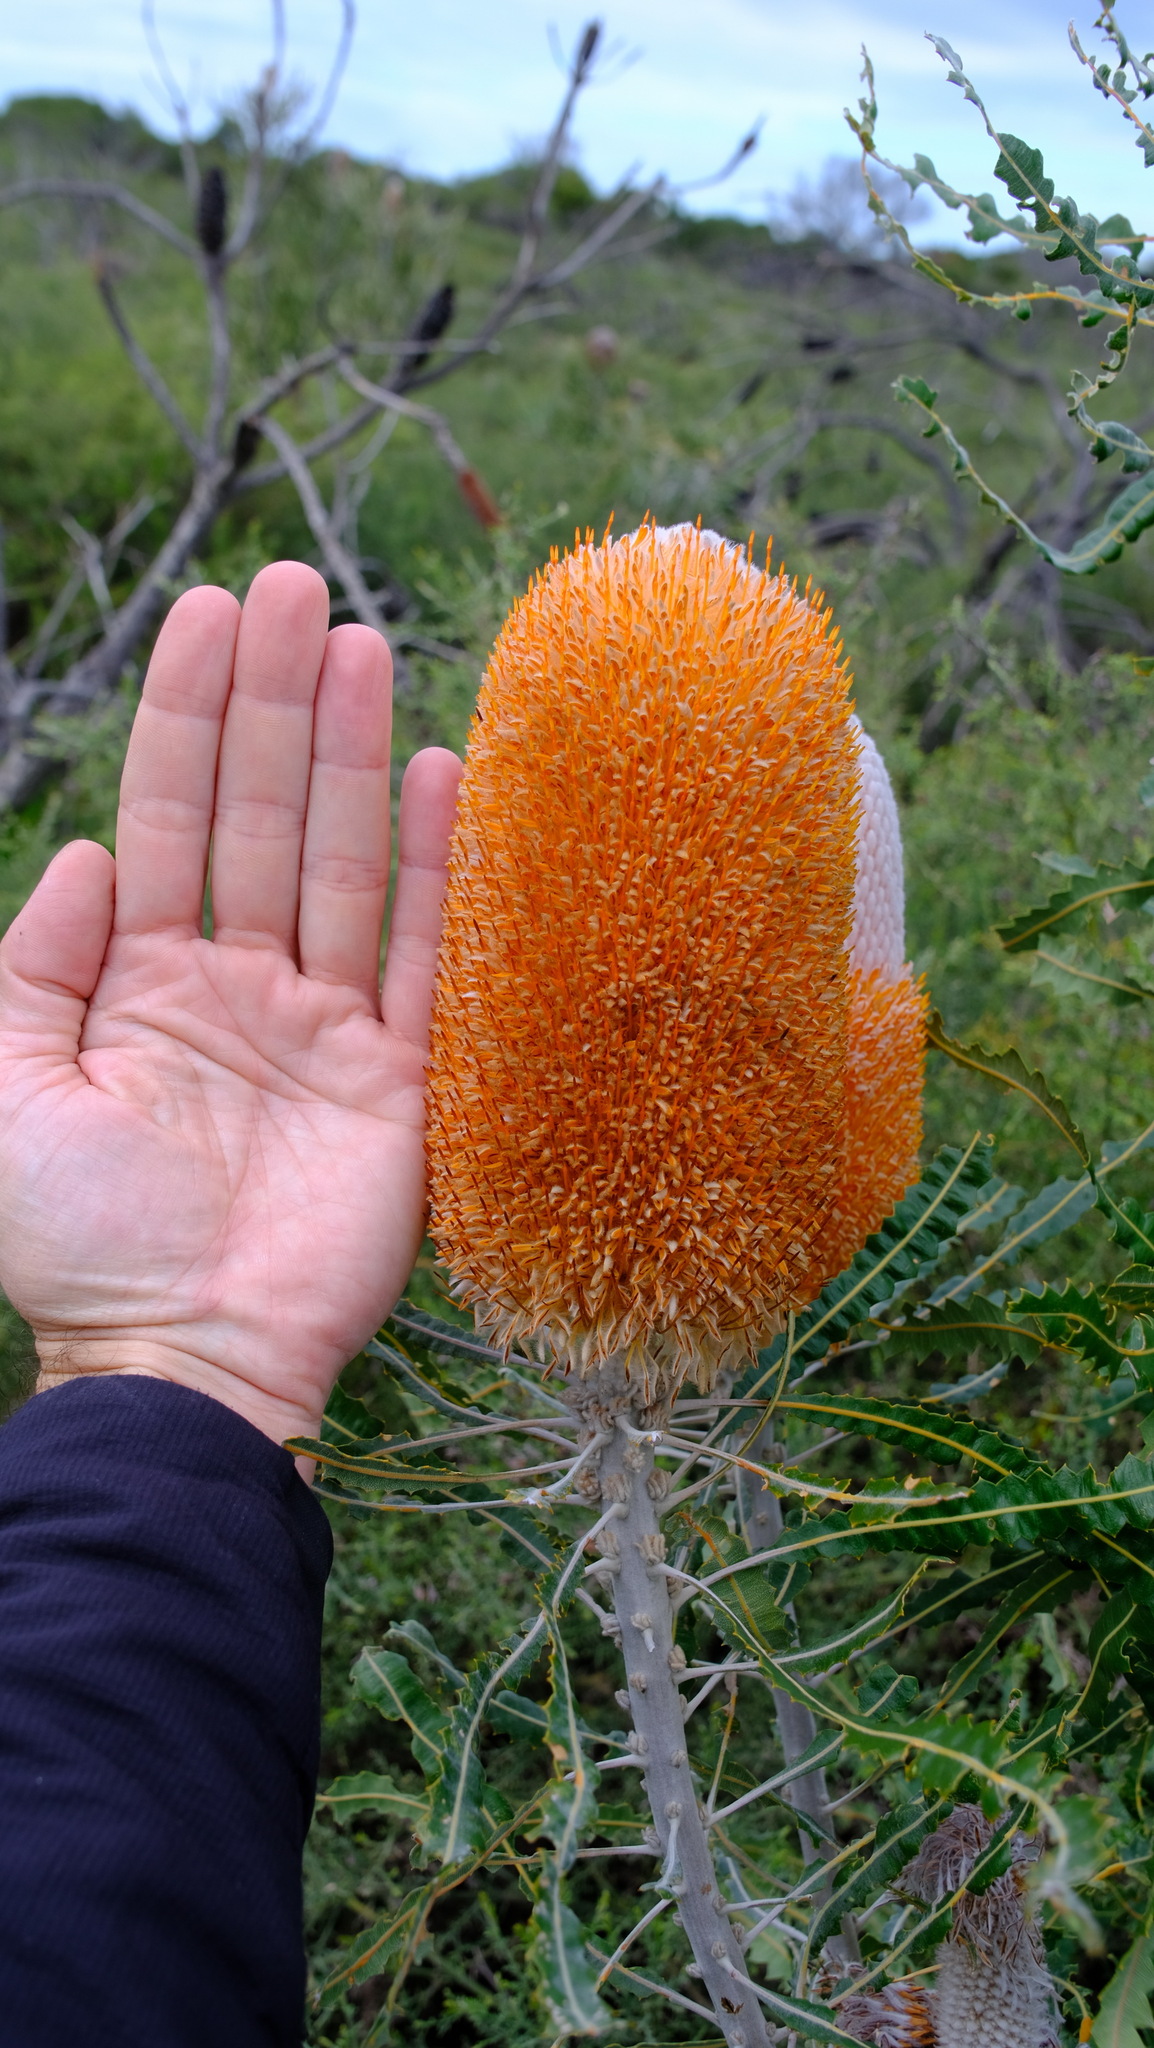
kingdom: Plantae
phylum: Tracheophyta
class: Magnoliopsida
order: Proteales
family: Proteaceae
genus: Banksia
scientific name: Banksia prionotes
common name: Acorn banksia
